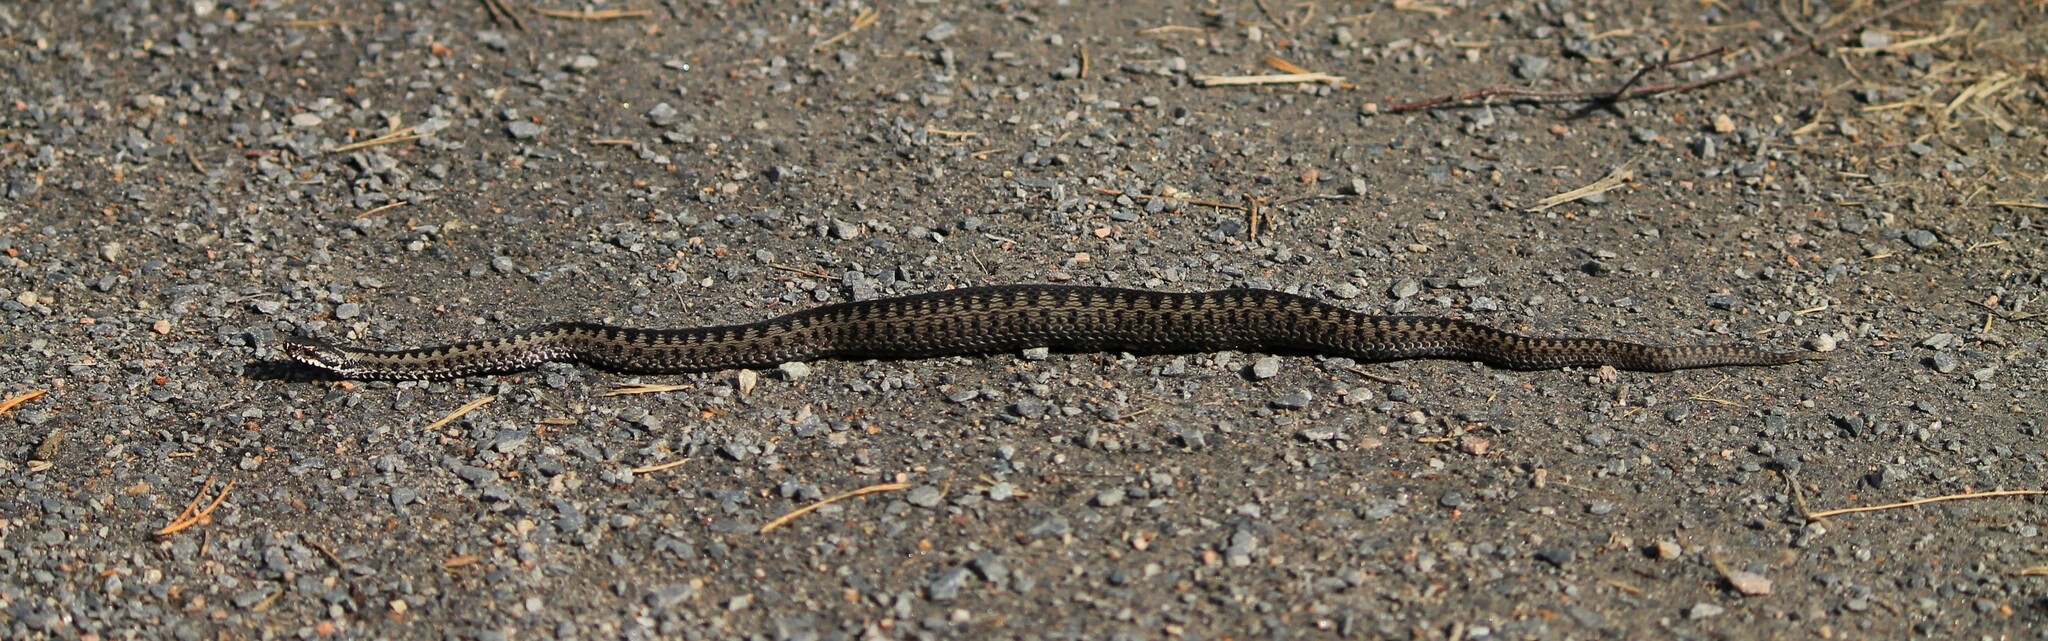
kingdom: Animalia
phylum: Chordata
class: Squamata
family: Viperidae
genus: Vipera
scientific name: Vipera berus
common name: Adder
